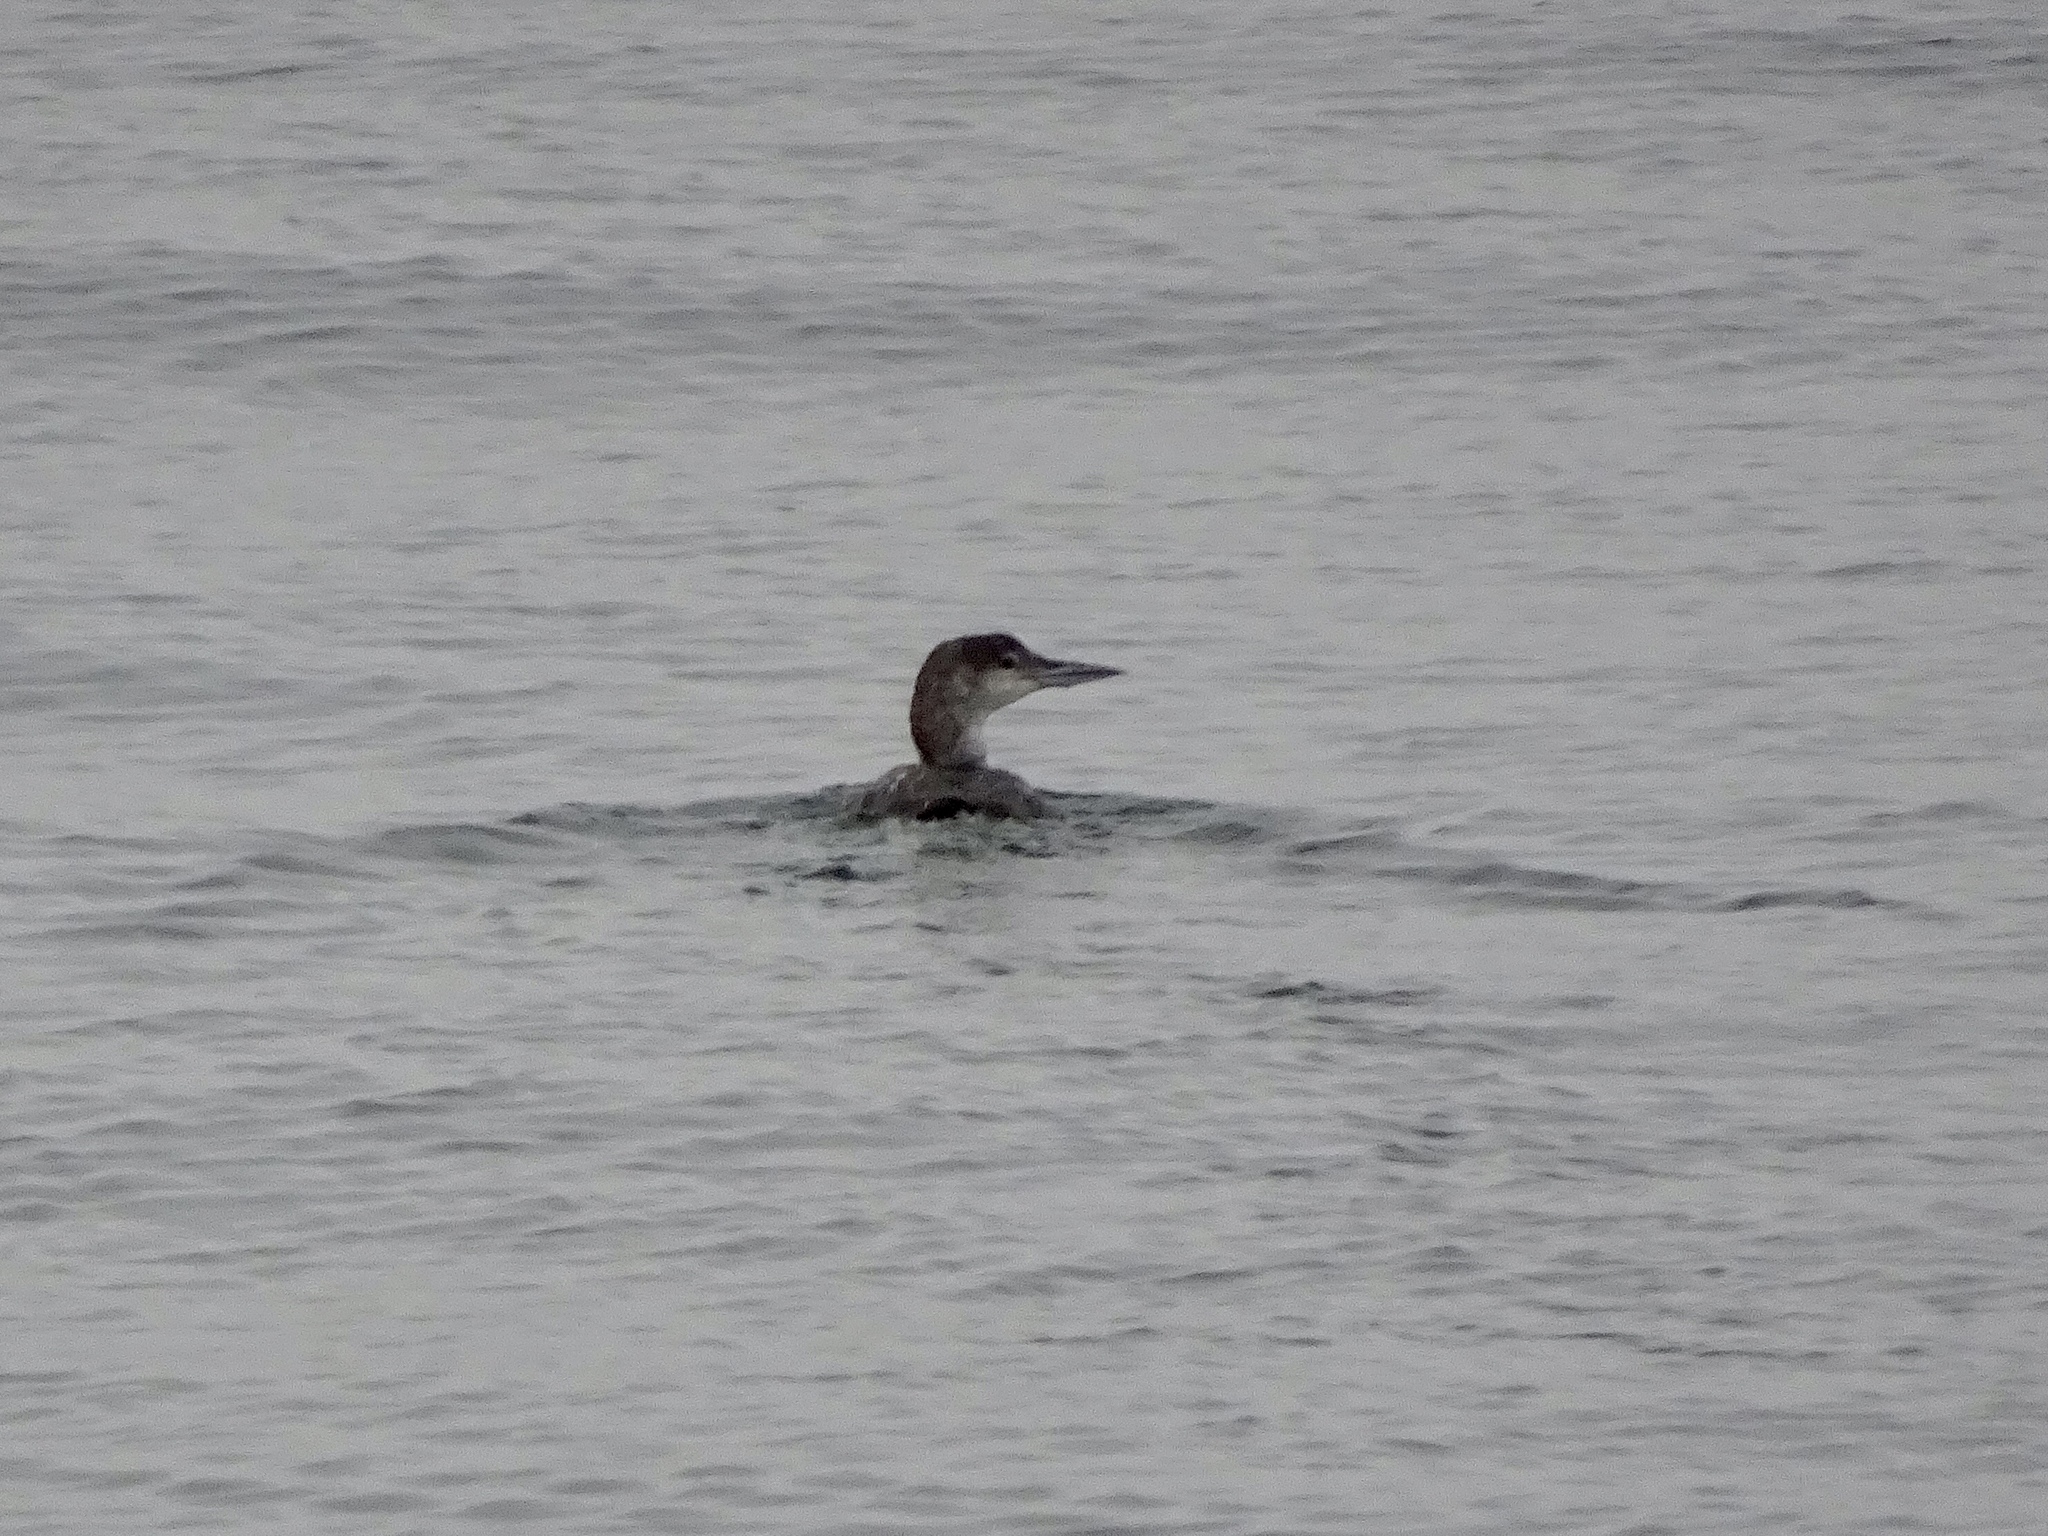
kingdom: Animalia
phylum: Chordata
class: Aves
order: Gaviiformes
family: Gaviidae
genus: Gavia
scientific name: Gavia immer
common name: Common loon
